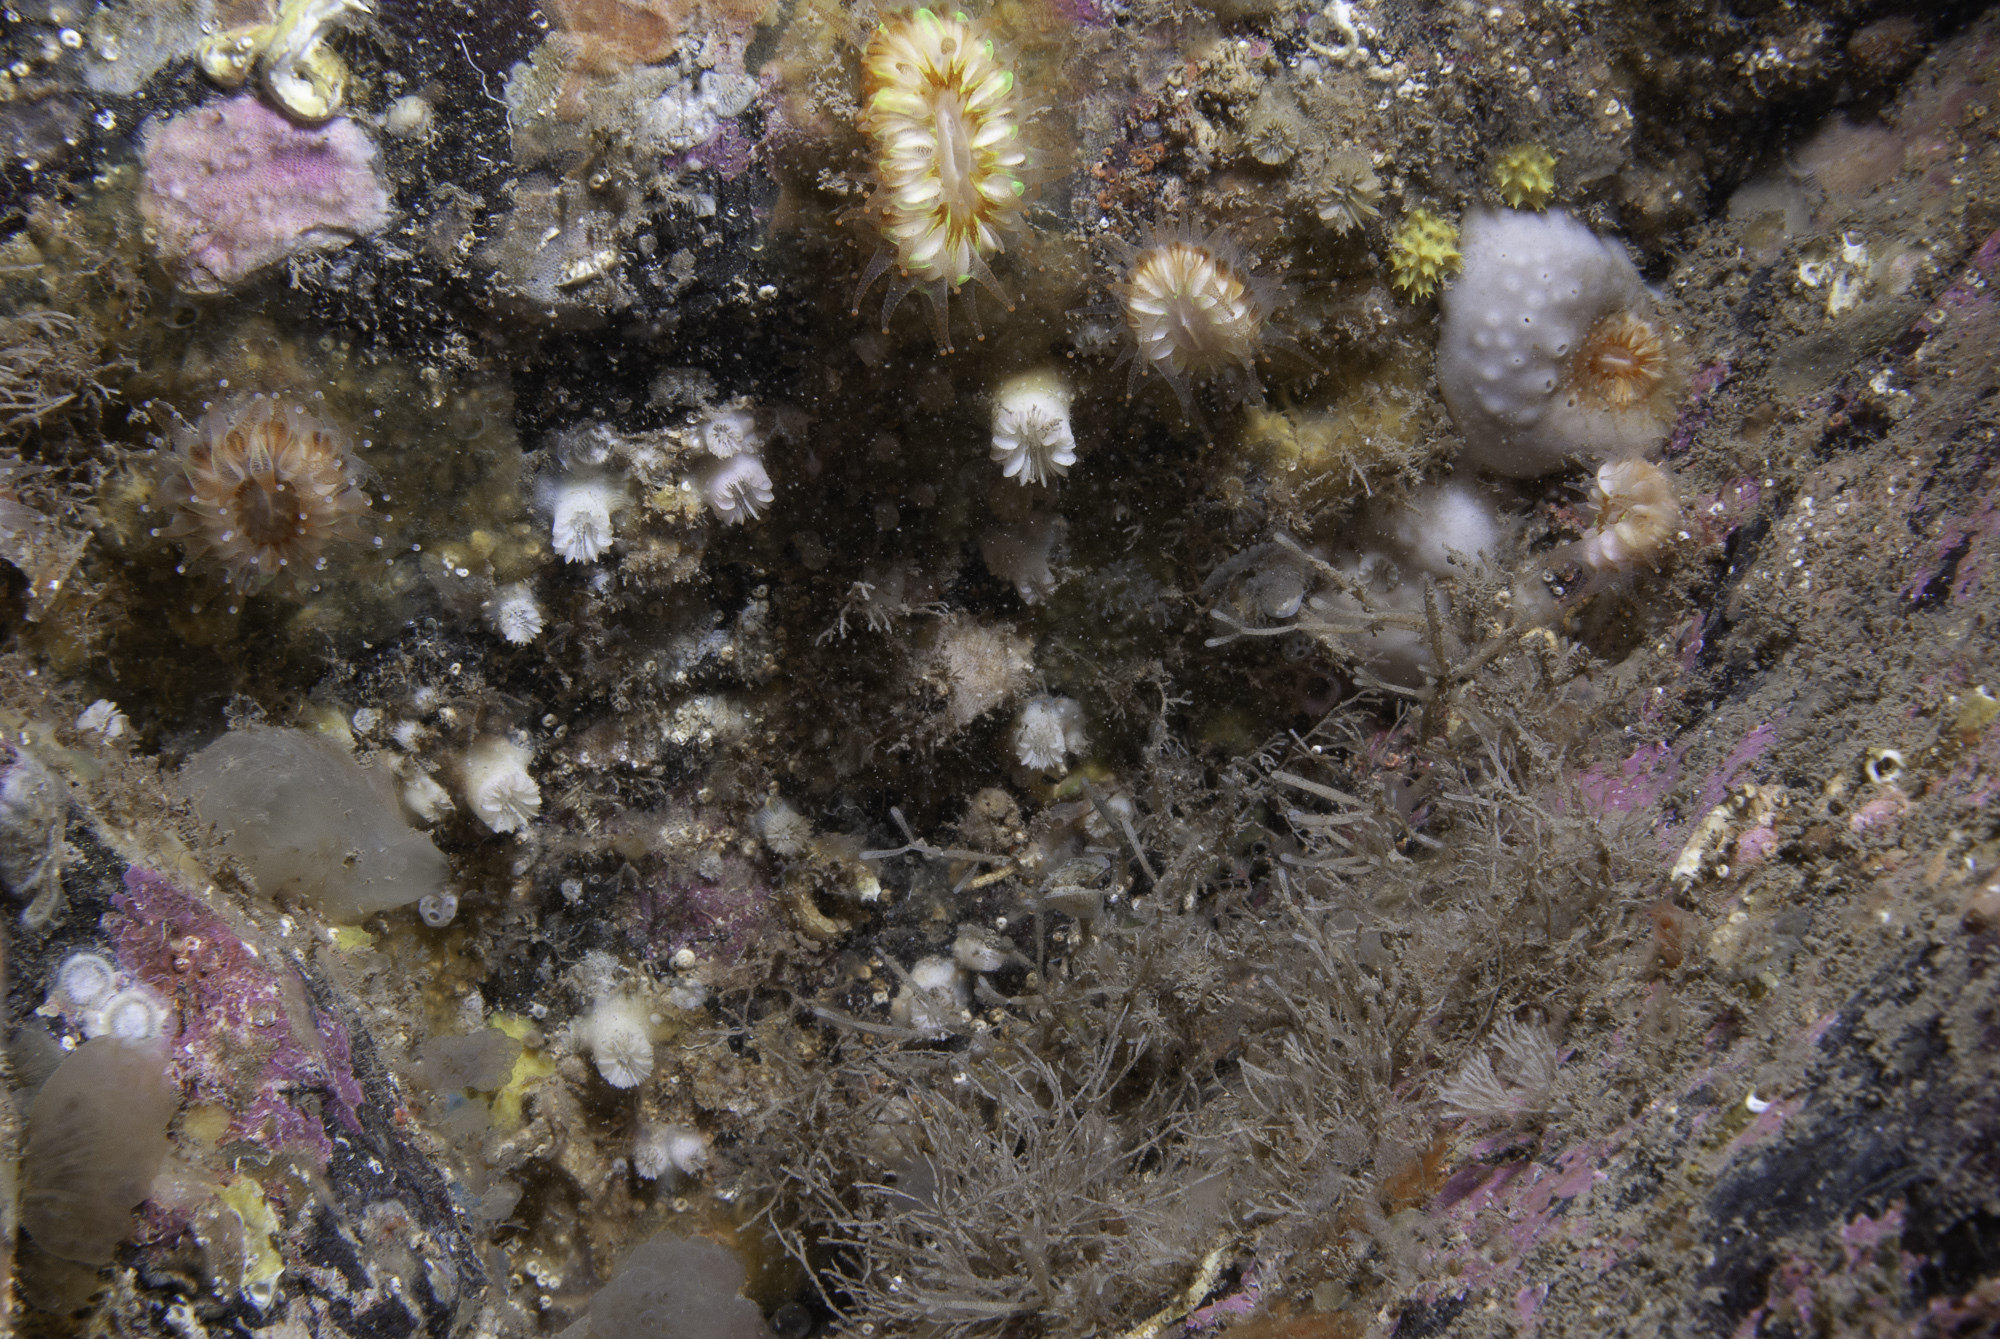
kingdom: Animalia
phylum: Cnidaria
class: Anthozoa
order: Scleractinia
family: Caryophylliidae
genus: Caryophyllia
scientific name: Caryophyllia inornata
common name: Circular cupcoral
